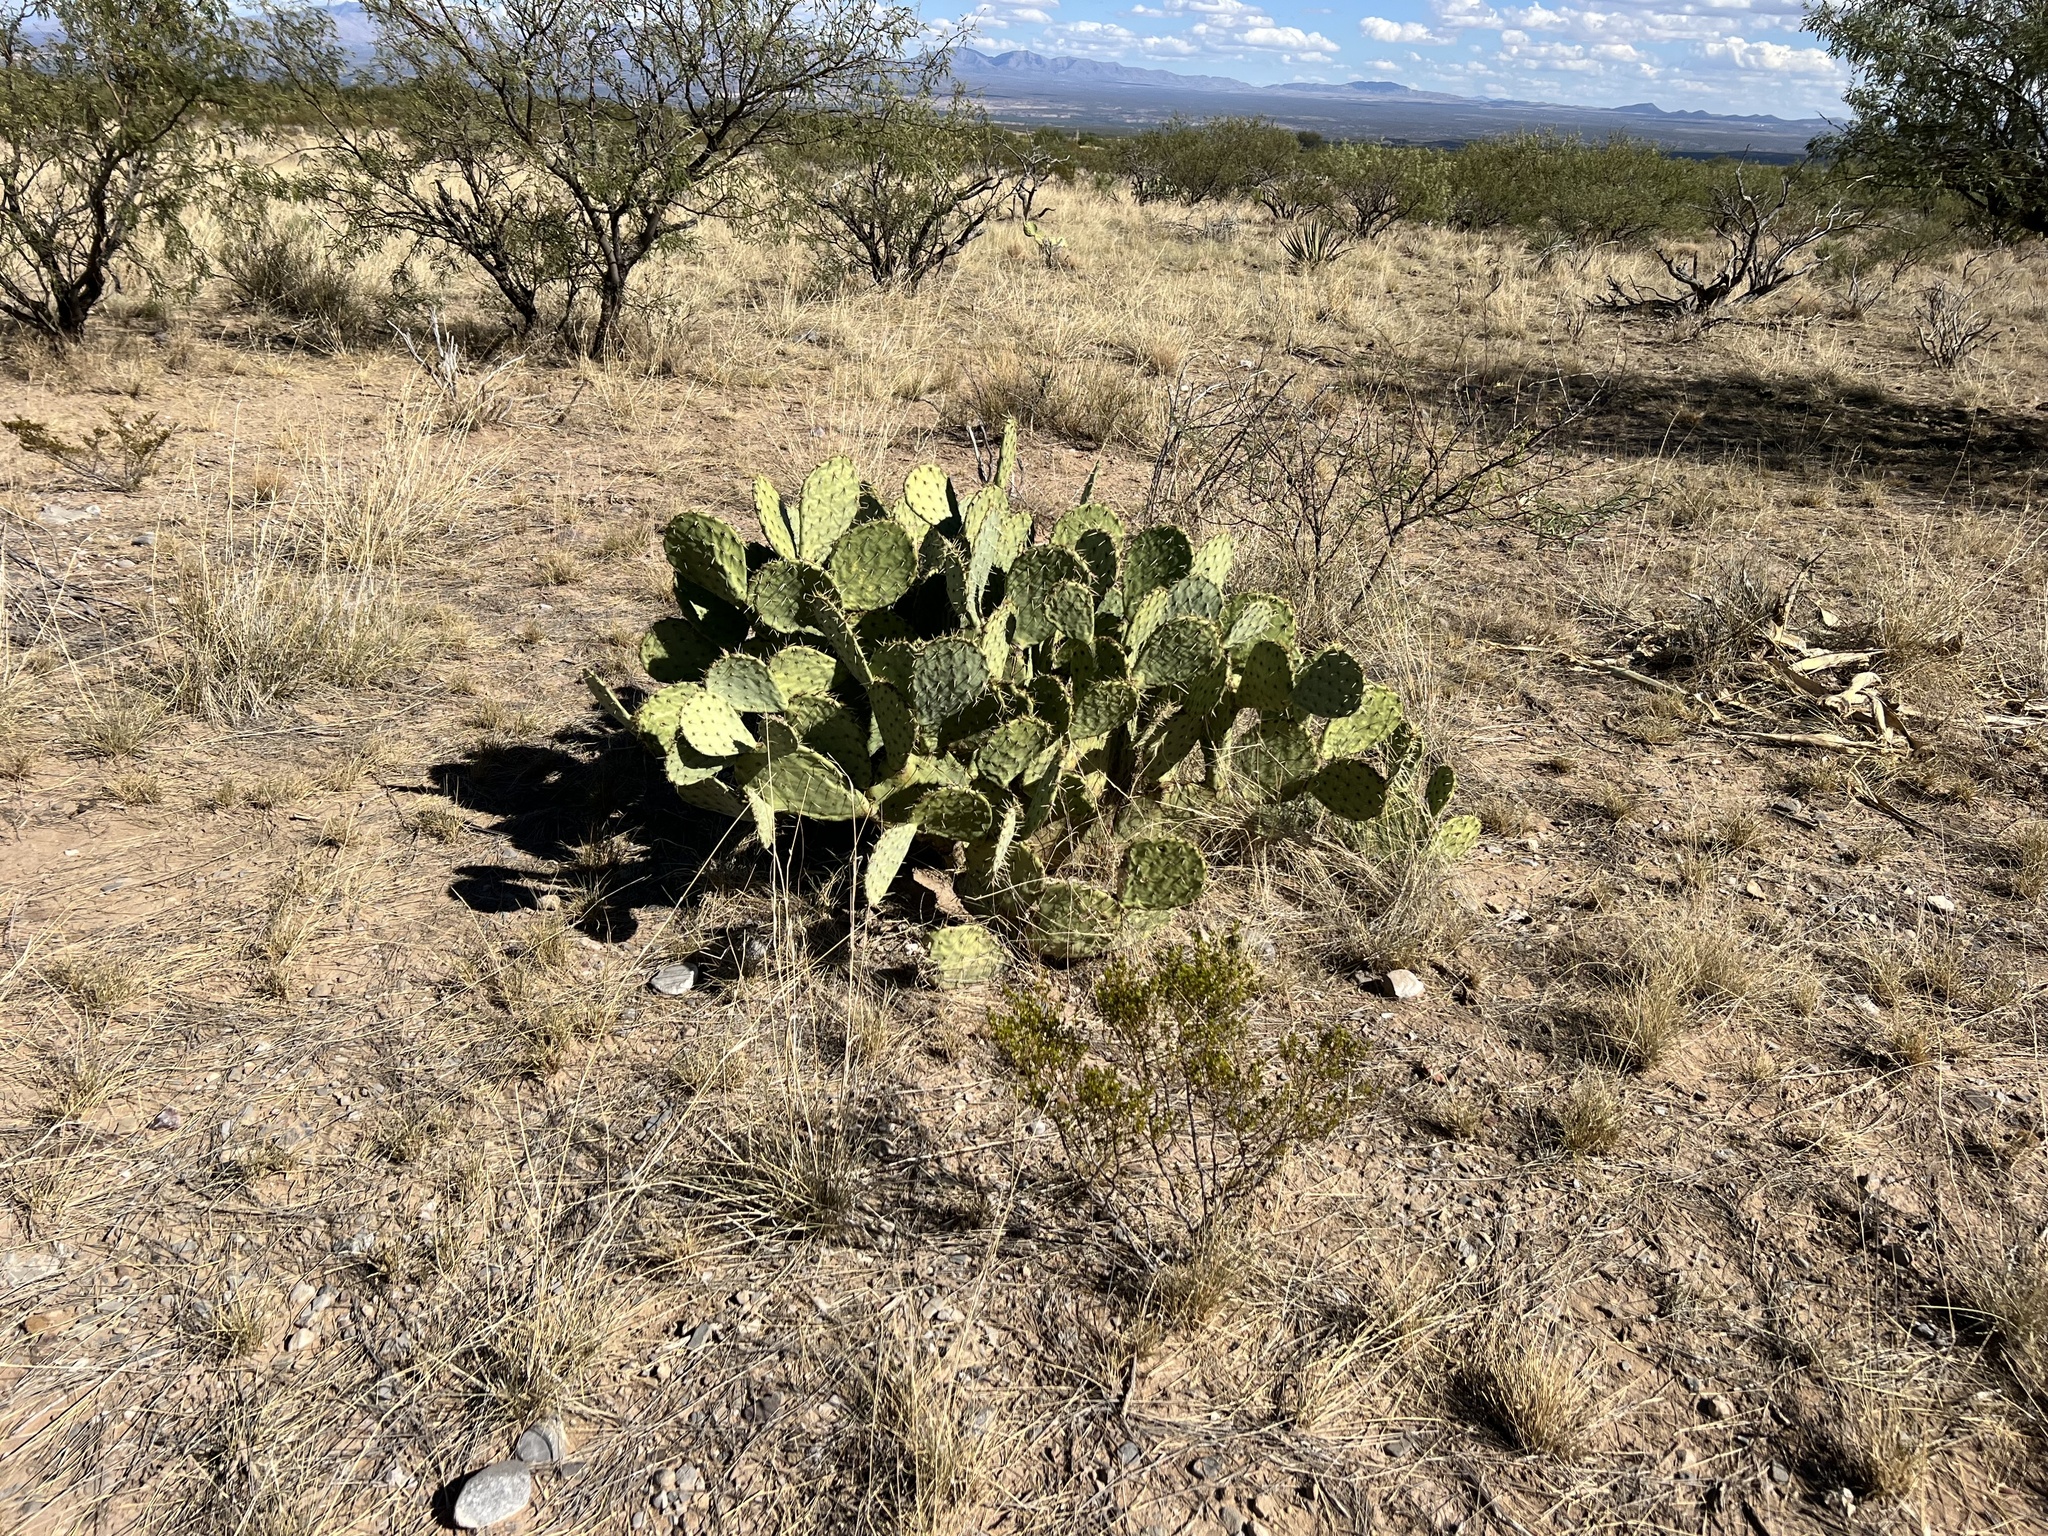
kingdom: Plantae
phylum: Tracheophyta
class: Magnoliopsida
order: Caryophyllales
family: Cactaceae
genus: Opuntia
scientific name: Opuntia engelmannii
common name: Cactus-apple
